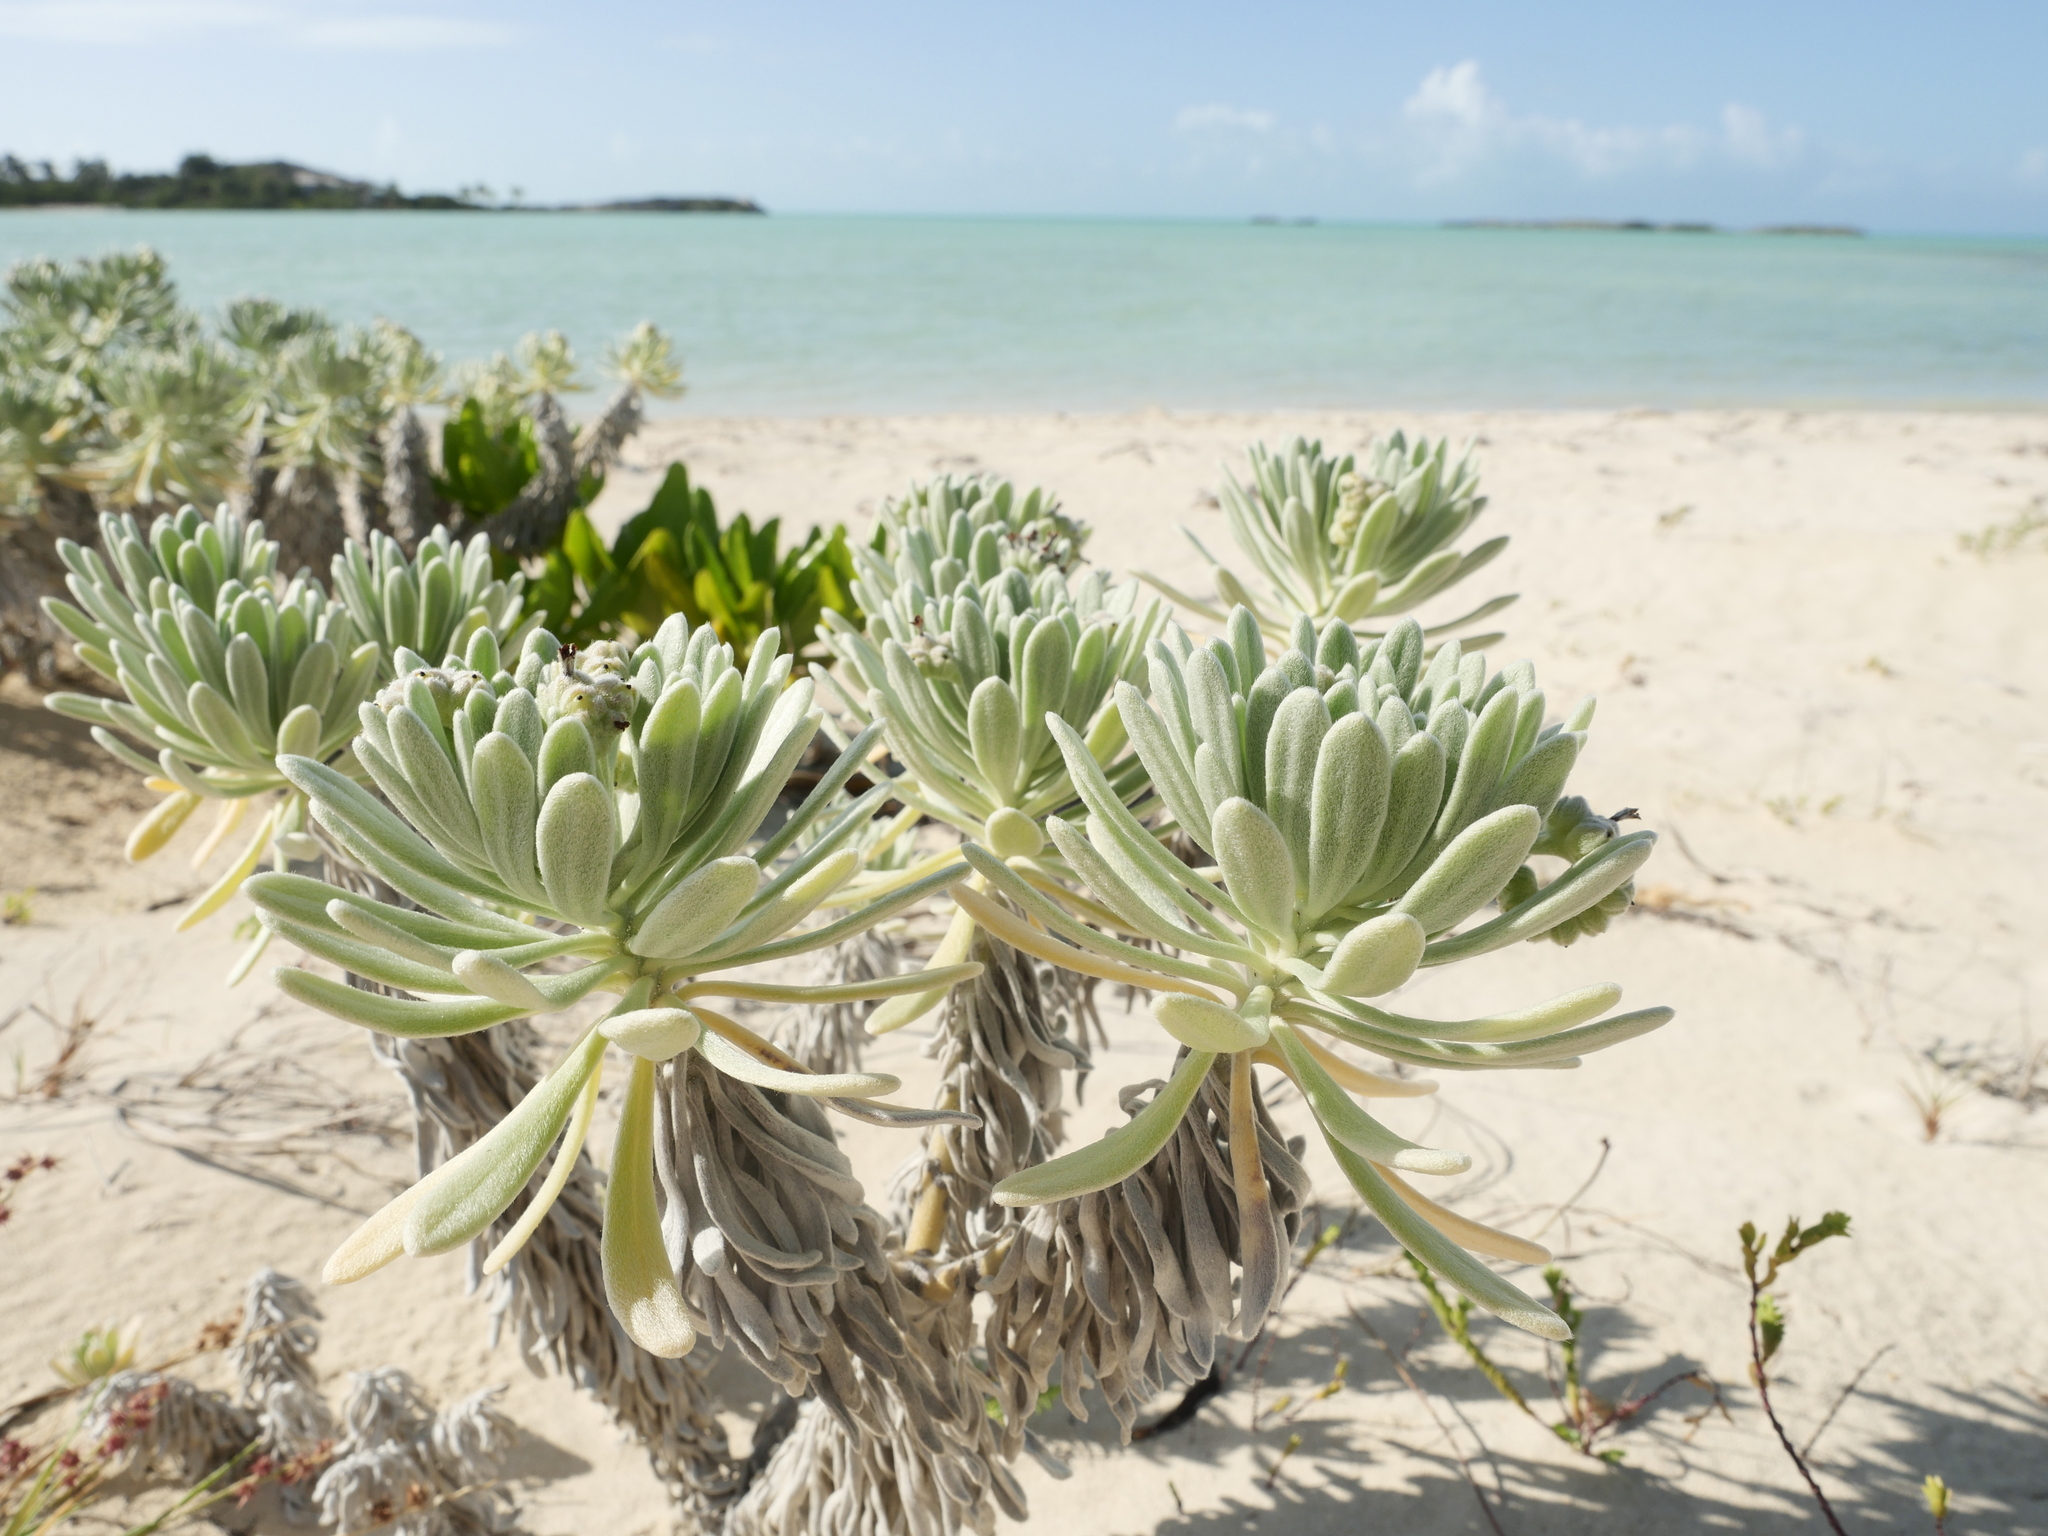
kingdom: Plantae
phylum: Tracheophyta
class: Magnoliopsida
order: Boraginales
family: Heliotropiaceae
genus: Tournefortia
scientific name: Tournefortia gnaphalodes
